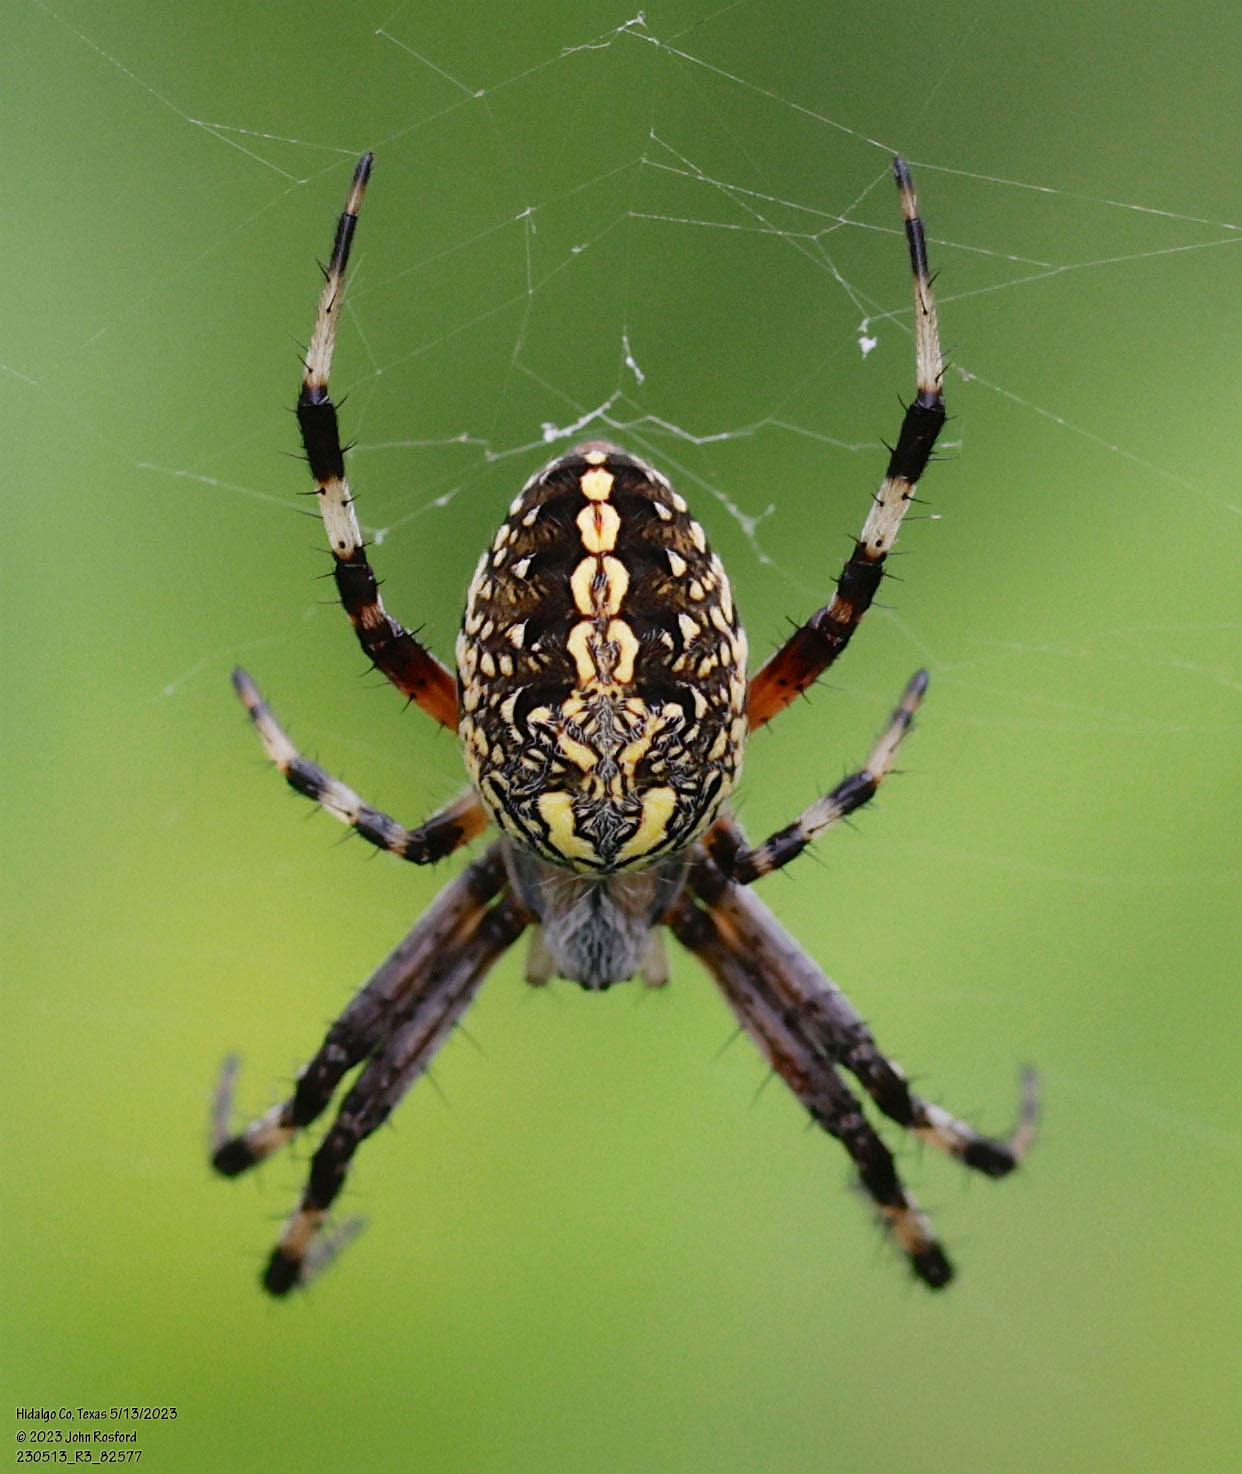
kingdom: Animalia
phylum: Arthropoda
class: Arachnida
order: Araneae
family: Araneidae
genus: Neoscona
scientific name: Neoscona oaxacensis
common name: Orb weavers
